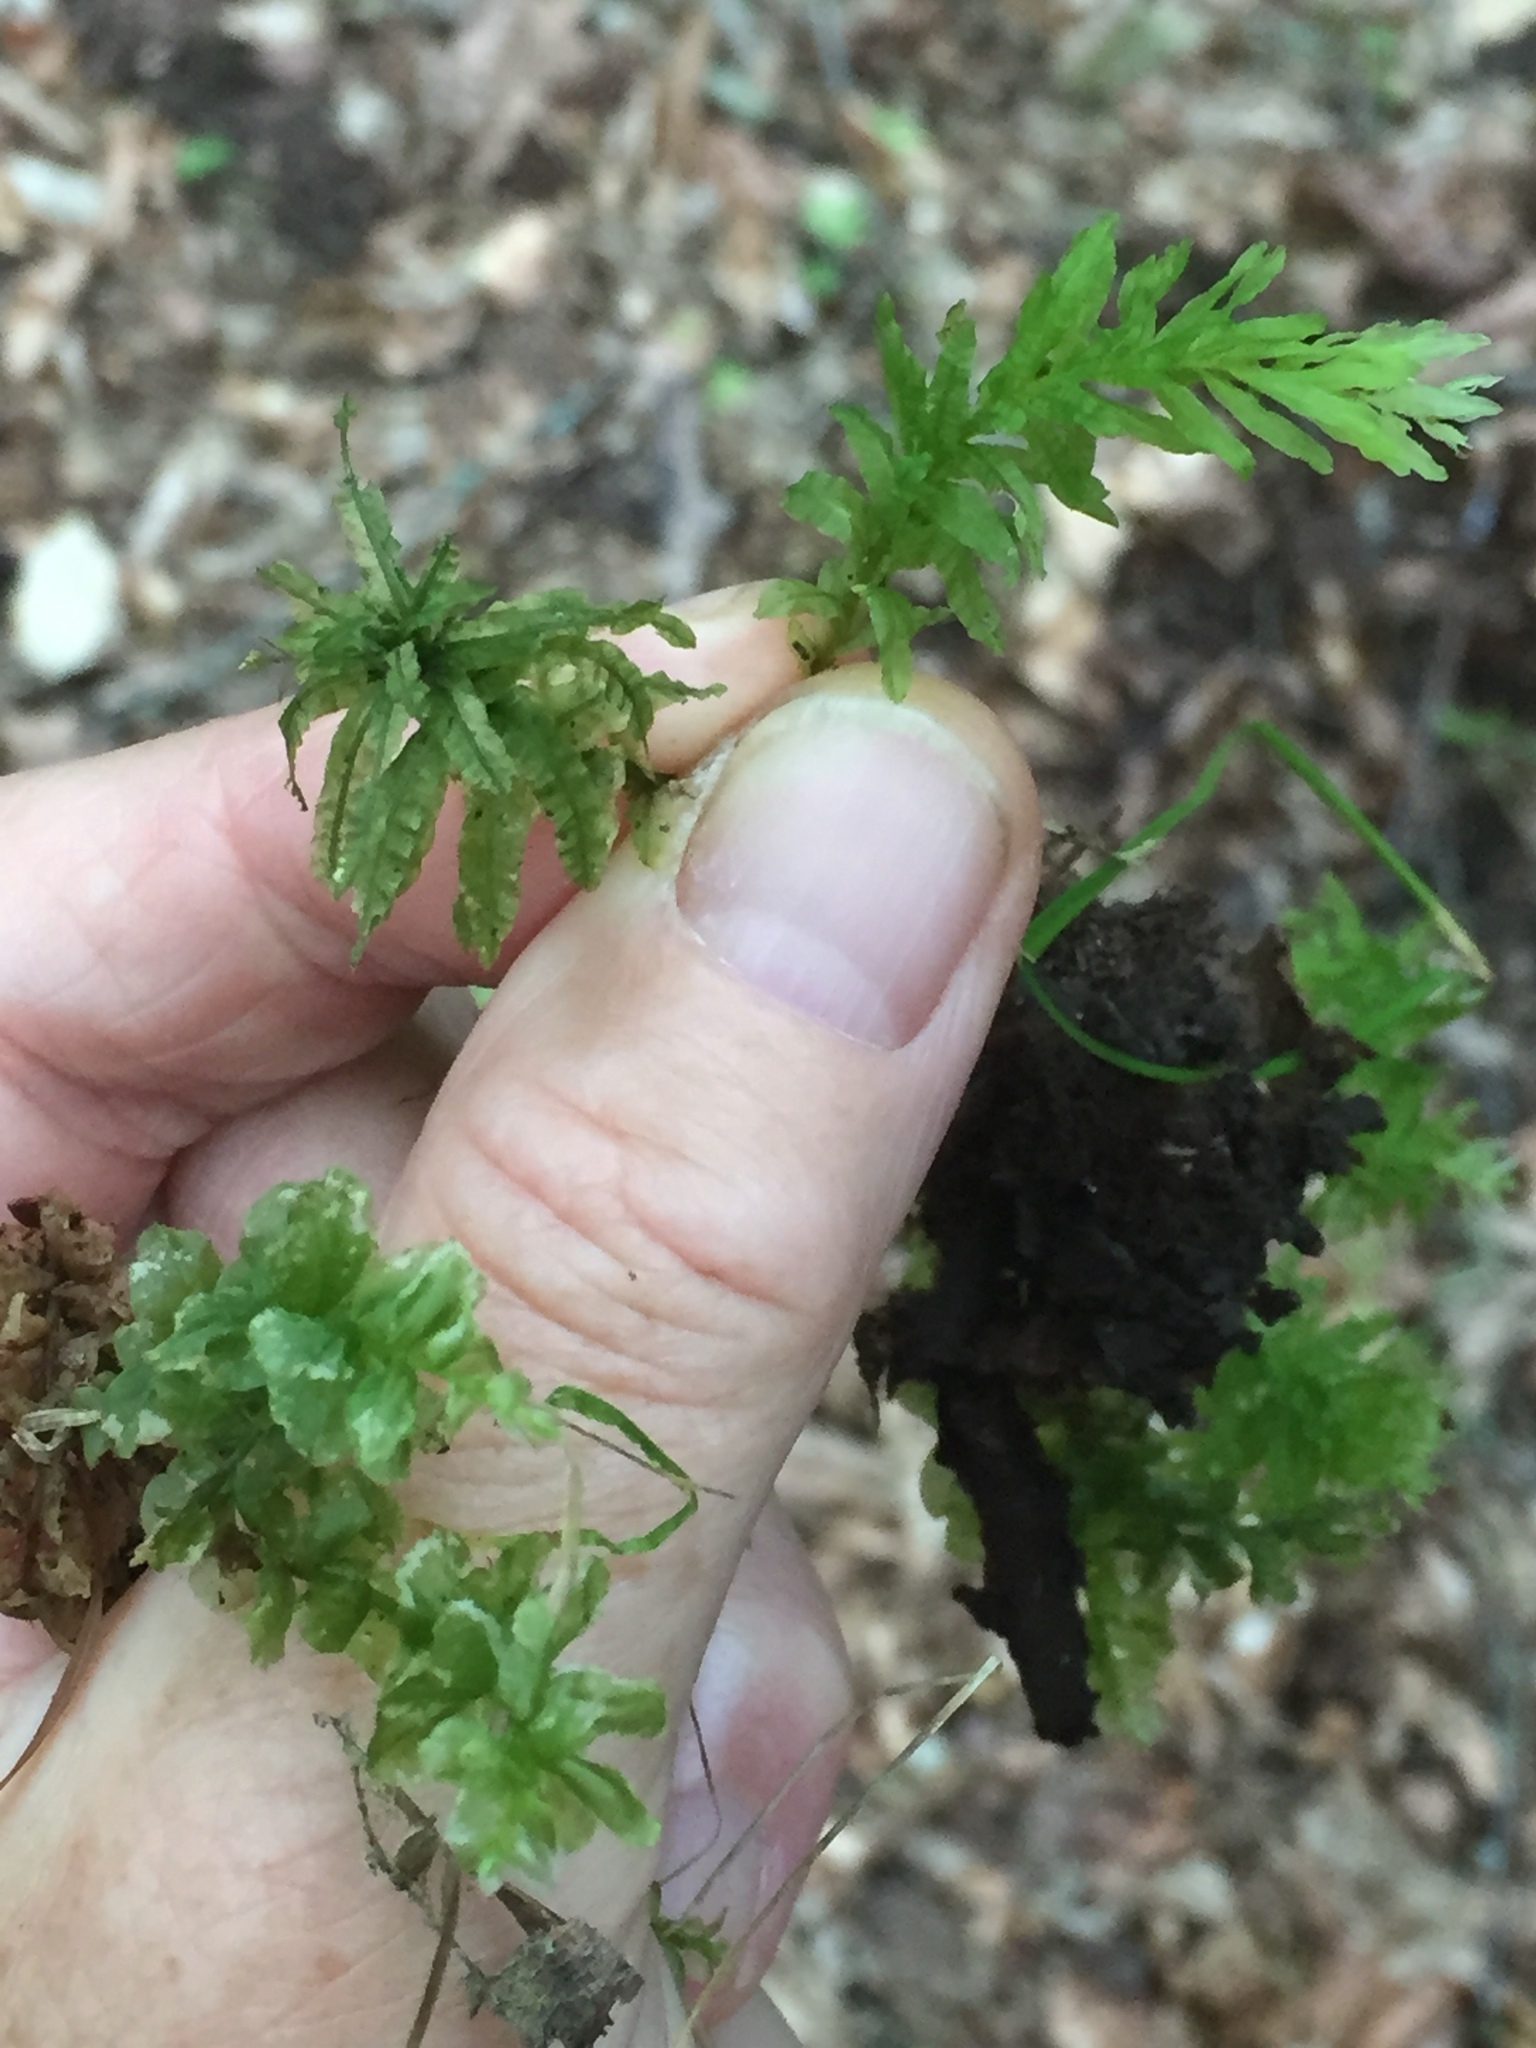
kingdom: Plantae
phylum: Bryophyta
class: Bryopsida
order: Bryales
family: Mniaceae
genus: Plagiomnium
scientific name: Plagiomnium undulatum
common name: Hart's-tongue thyme-moss
